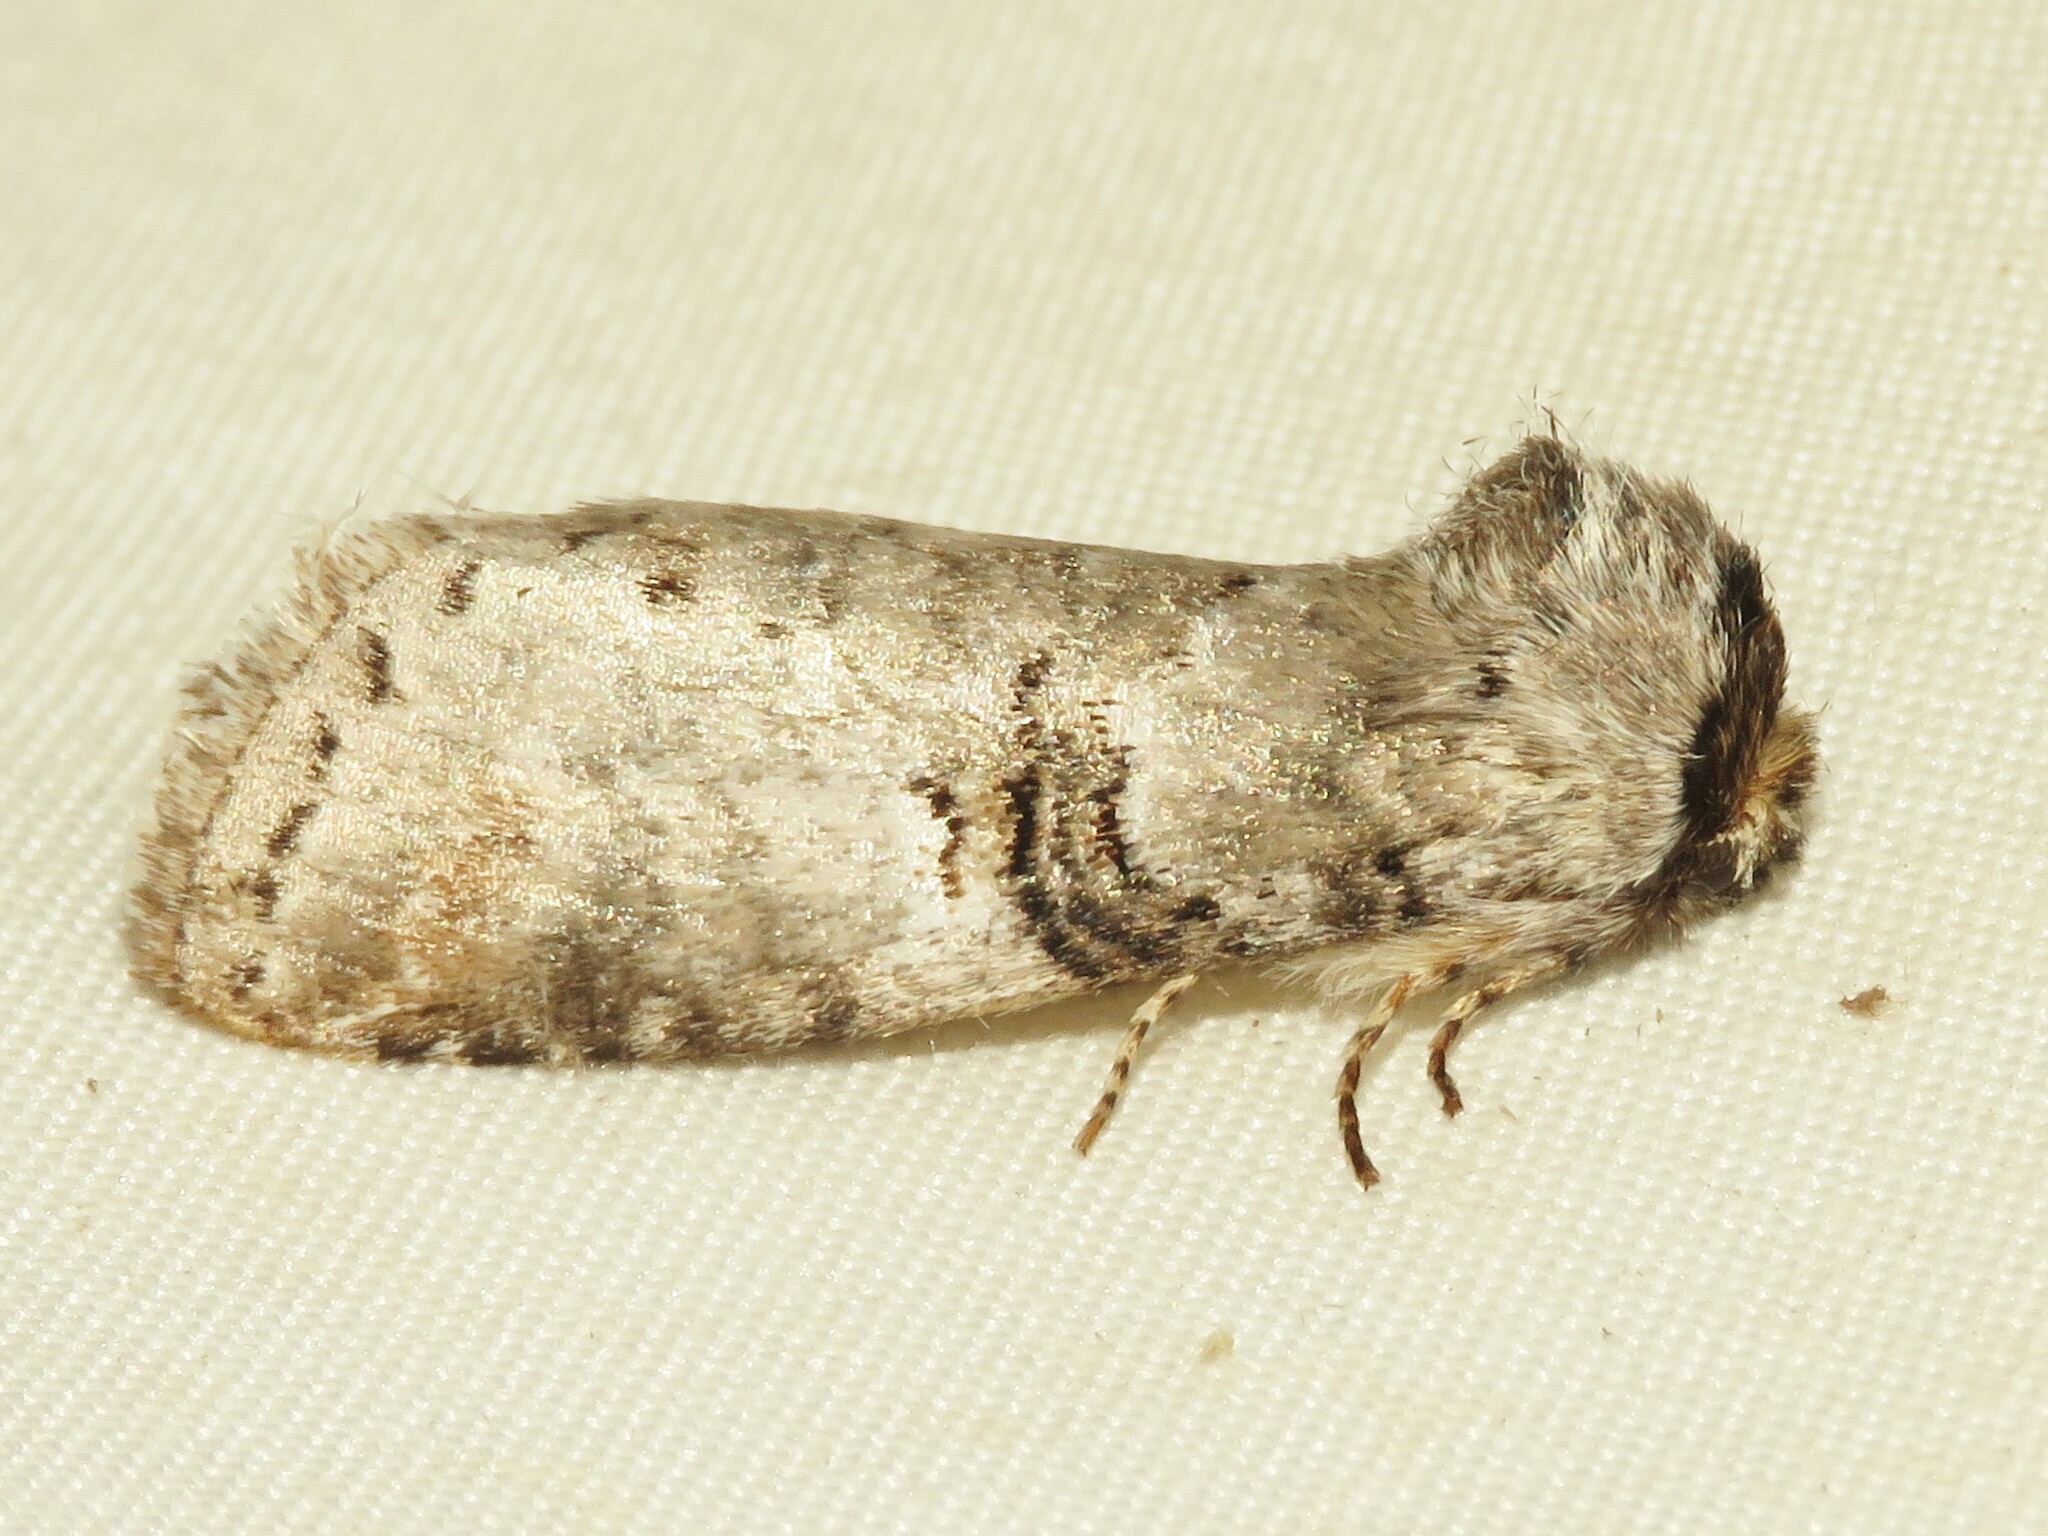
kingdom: Animalia
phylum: Arthropoda
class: Insecta
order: Lepidoptera
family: Notodontidae
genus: Ellida
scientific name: Ellida caniplaga
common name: Linden prominent
